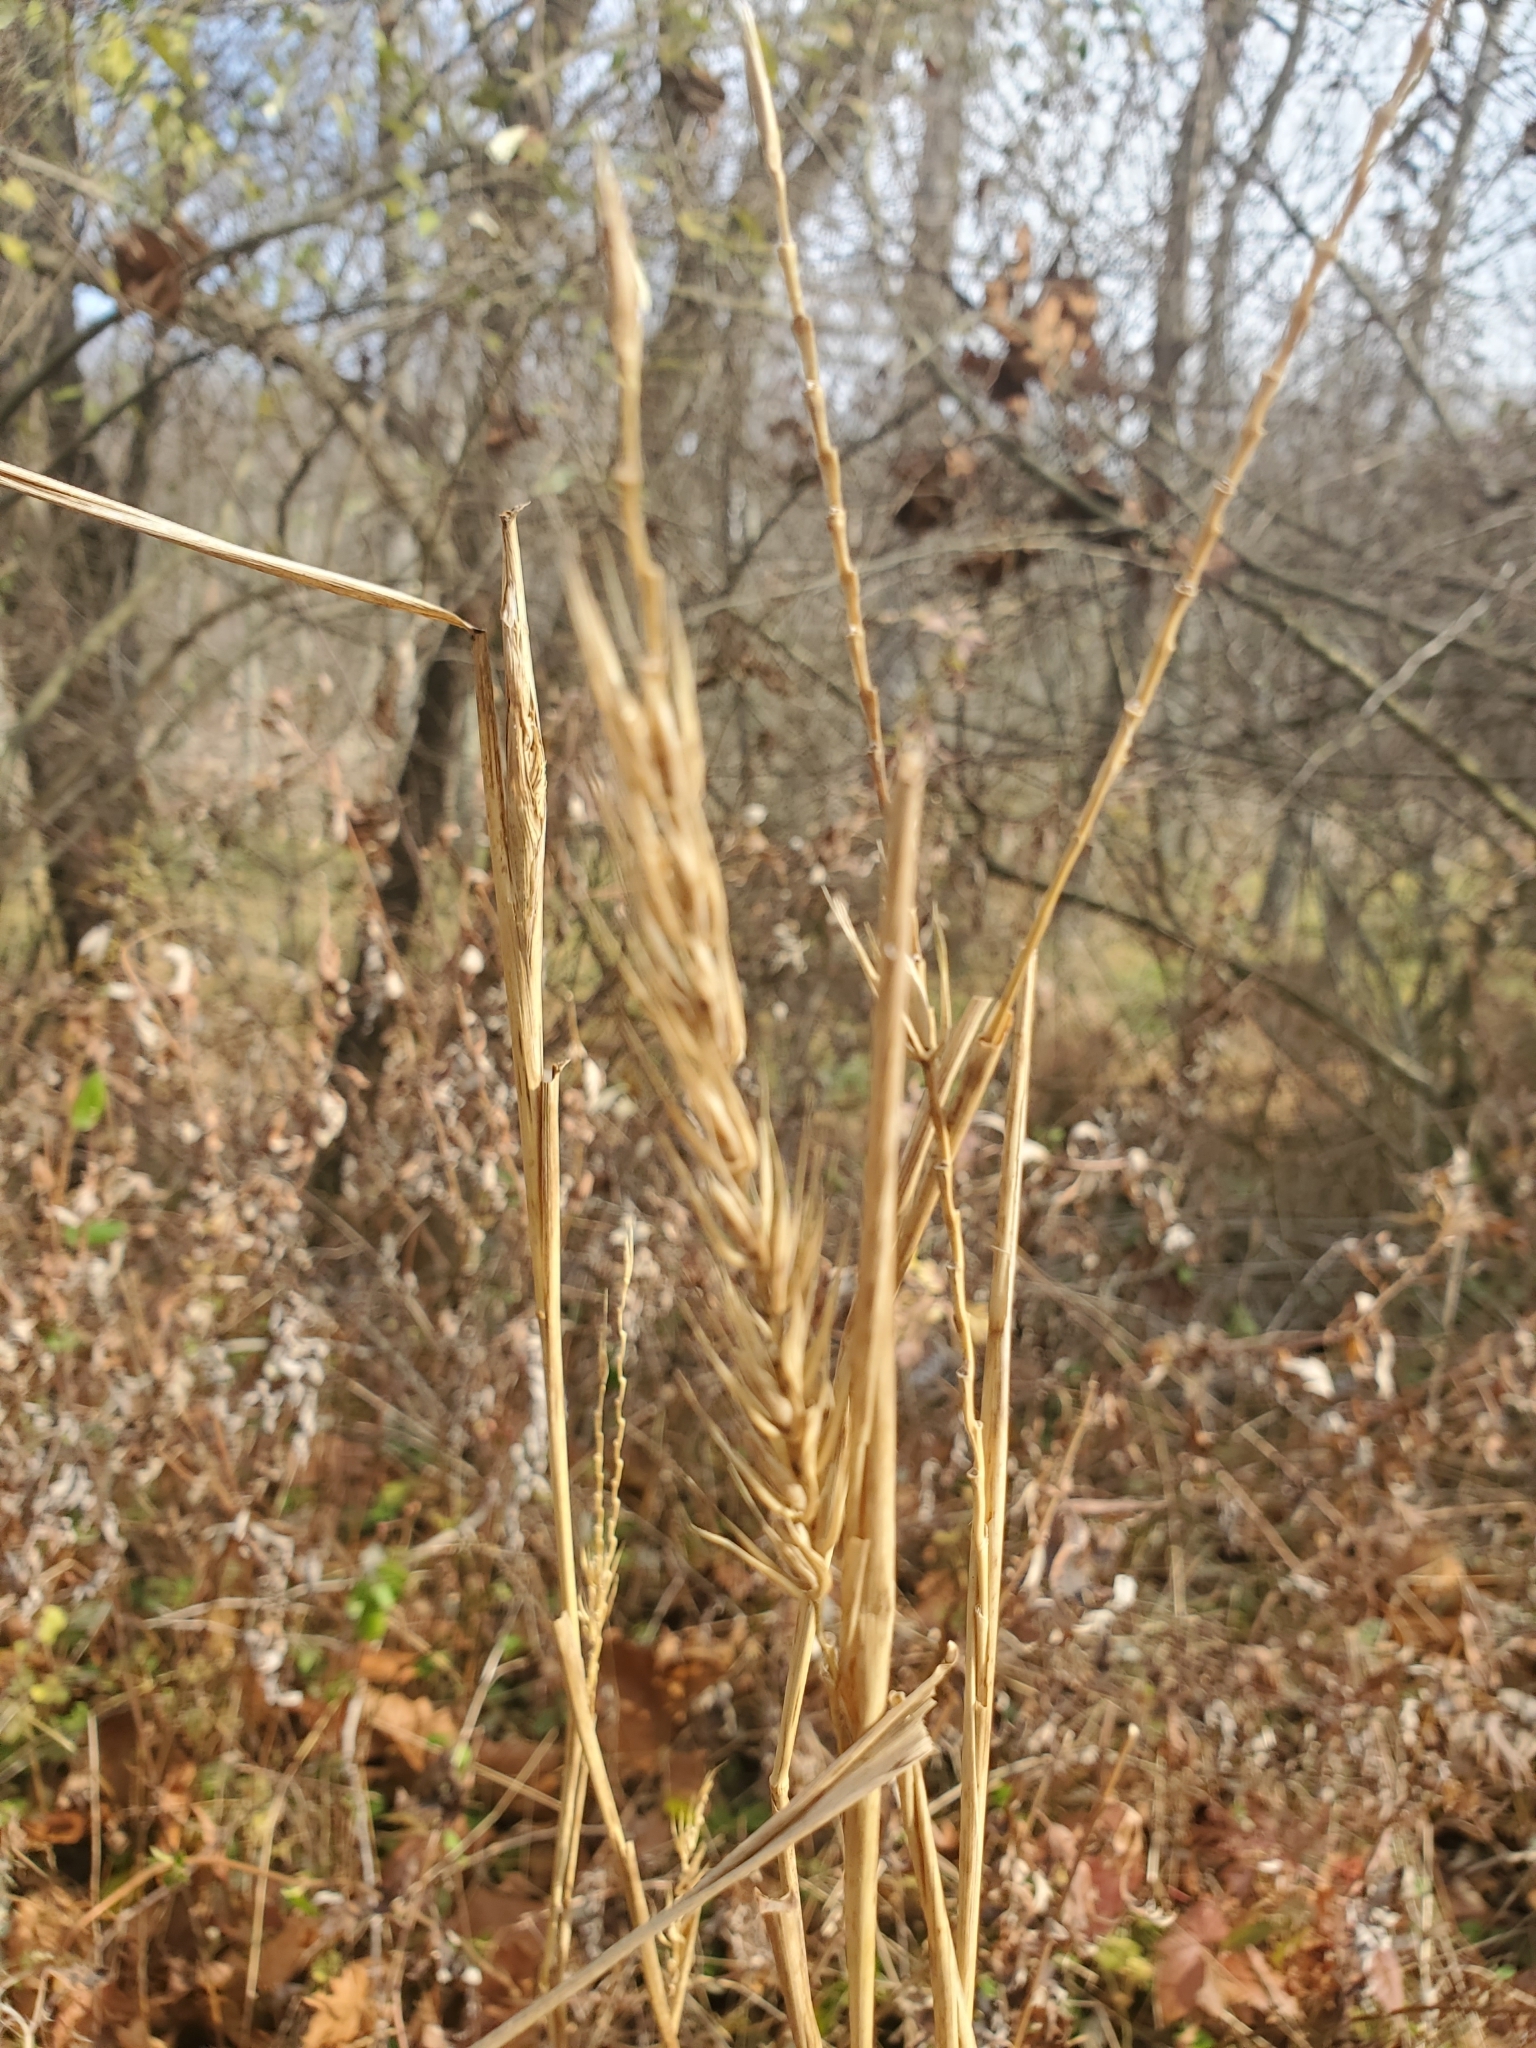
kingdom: Plantae
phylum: Tracheophyta
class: Liliopsida
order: Poales
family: Poaceae
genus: Elymus
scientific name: Elymus virginicus
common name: Common eastern wildrye
